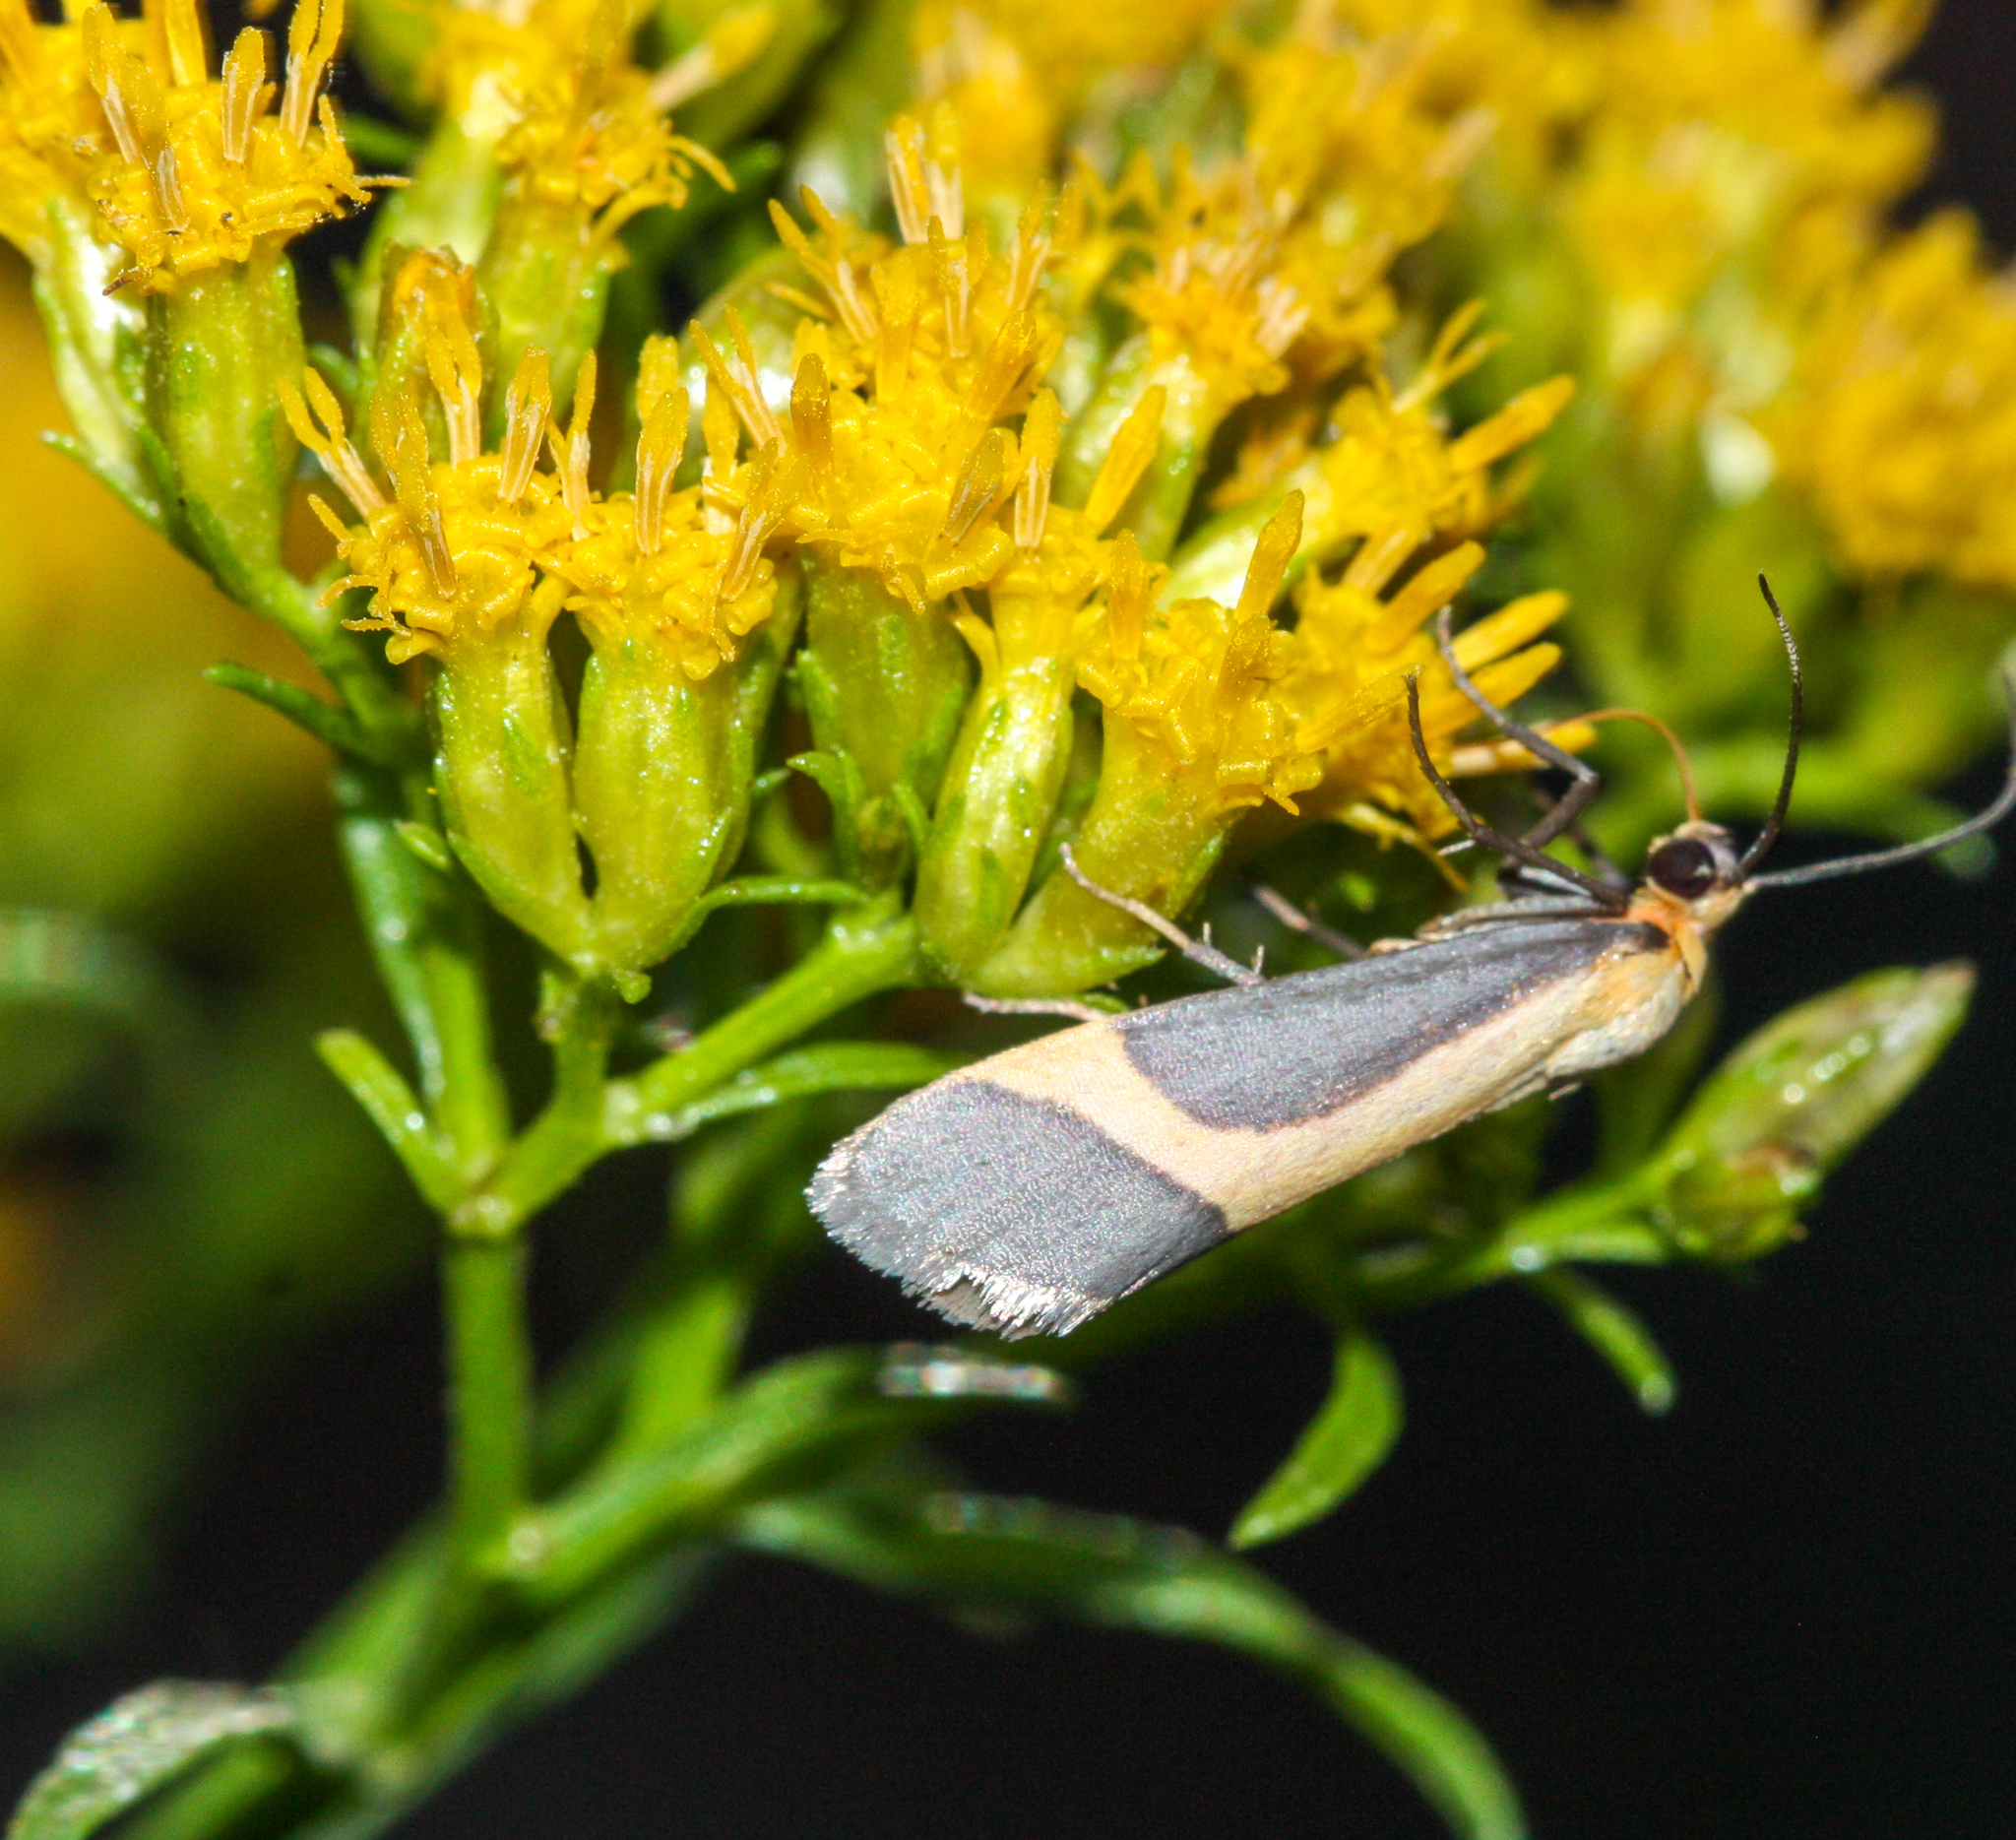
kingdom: Animalia
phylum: Arthropoda
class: Insecta
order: Lepidoptera
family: Erebidae
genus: Cisthene
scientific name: Cisthene angelus
